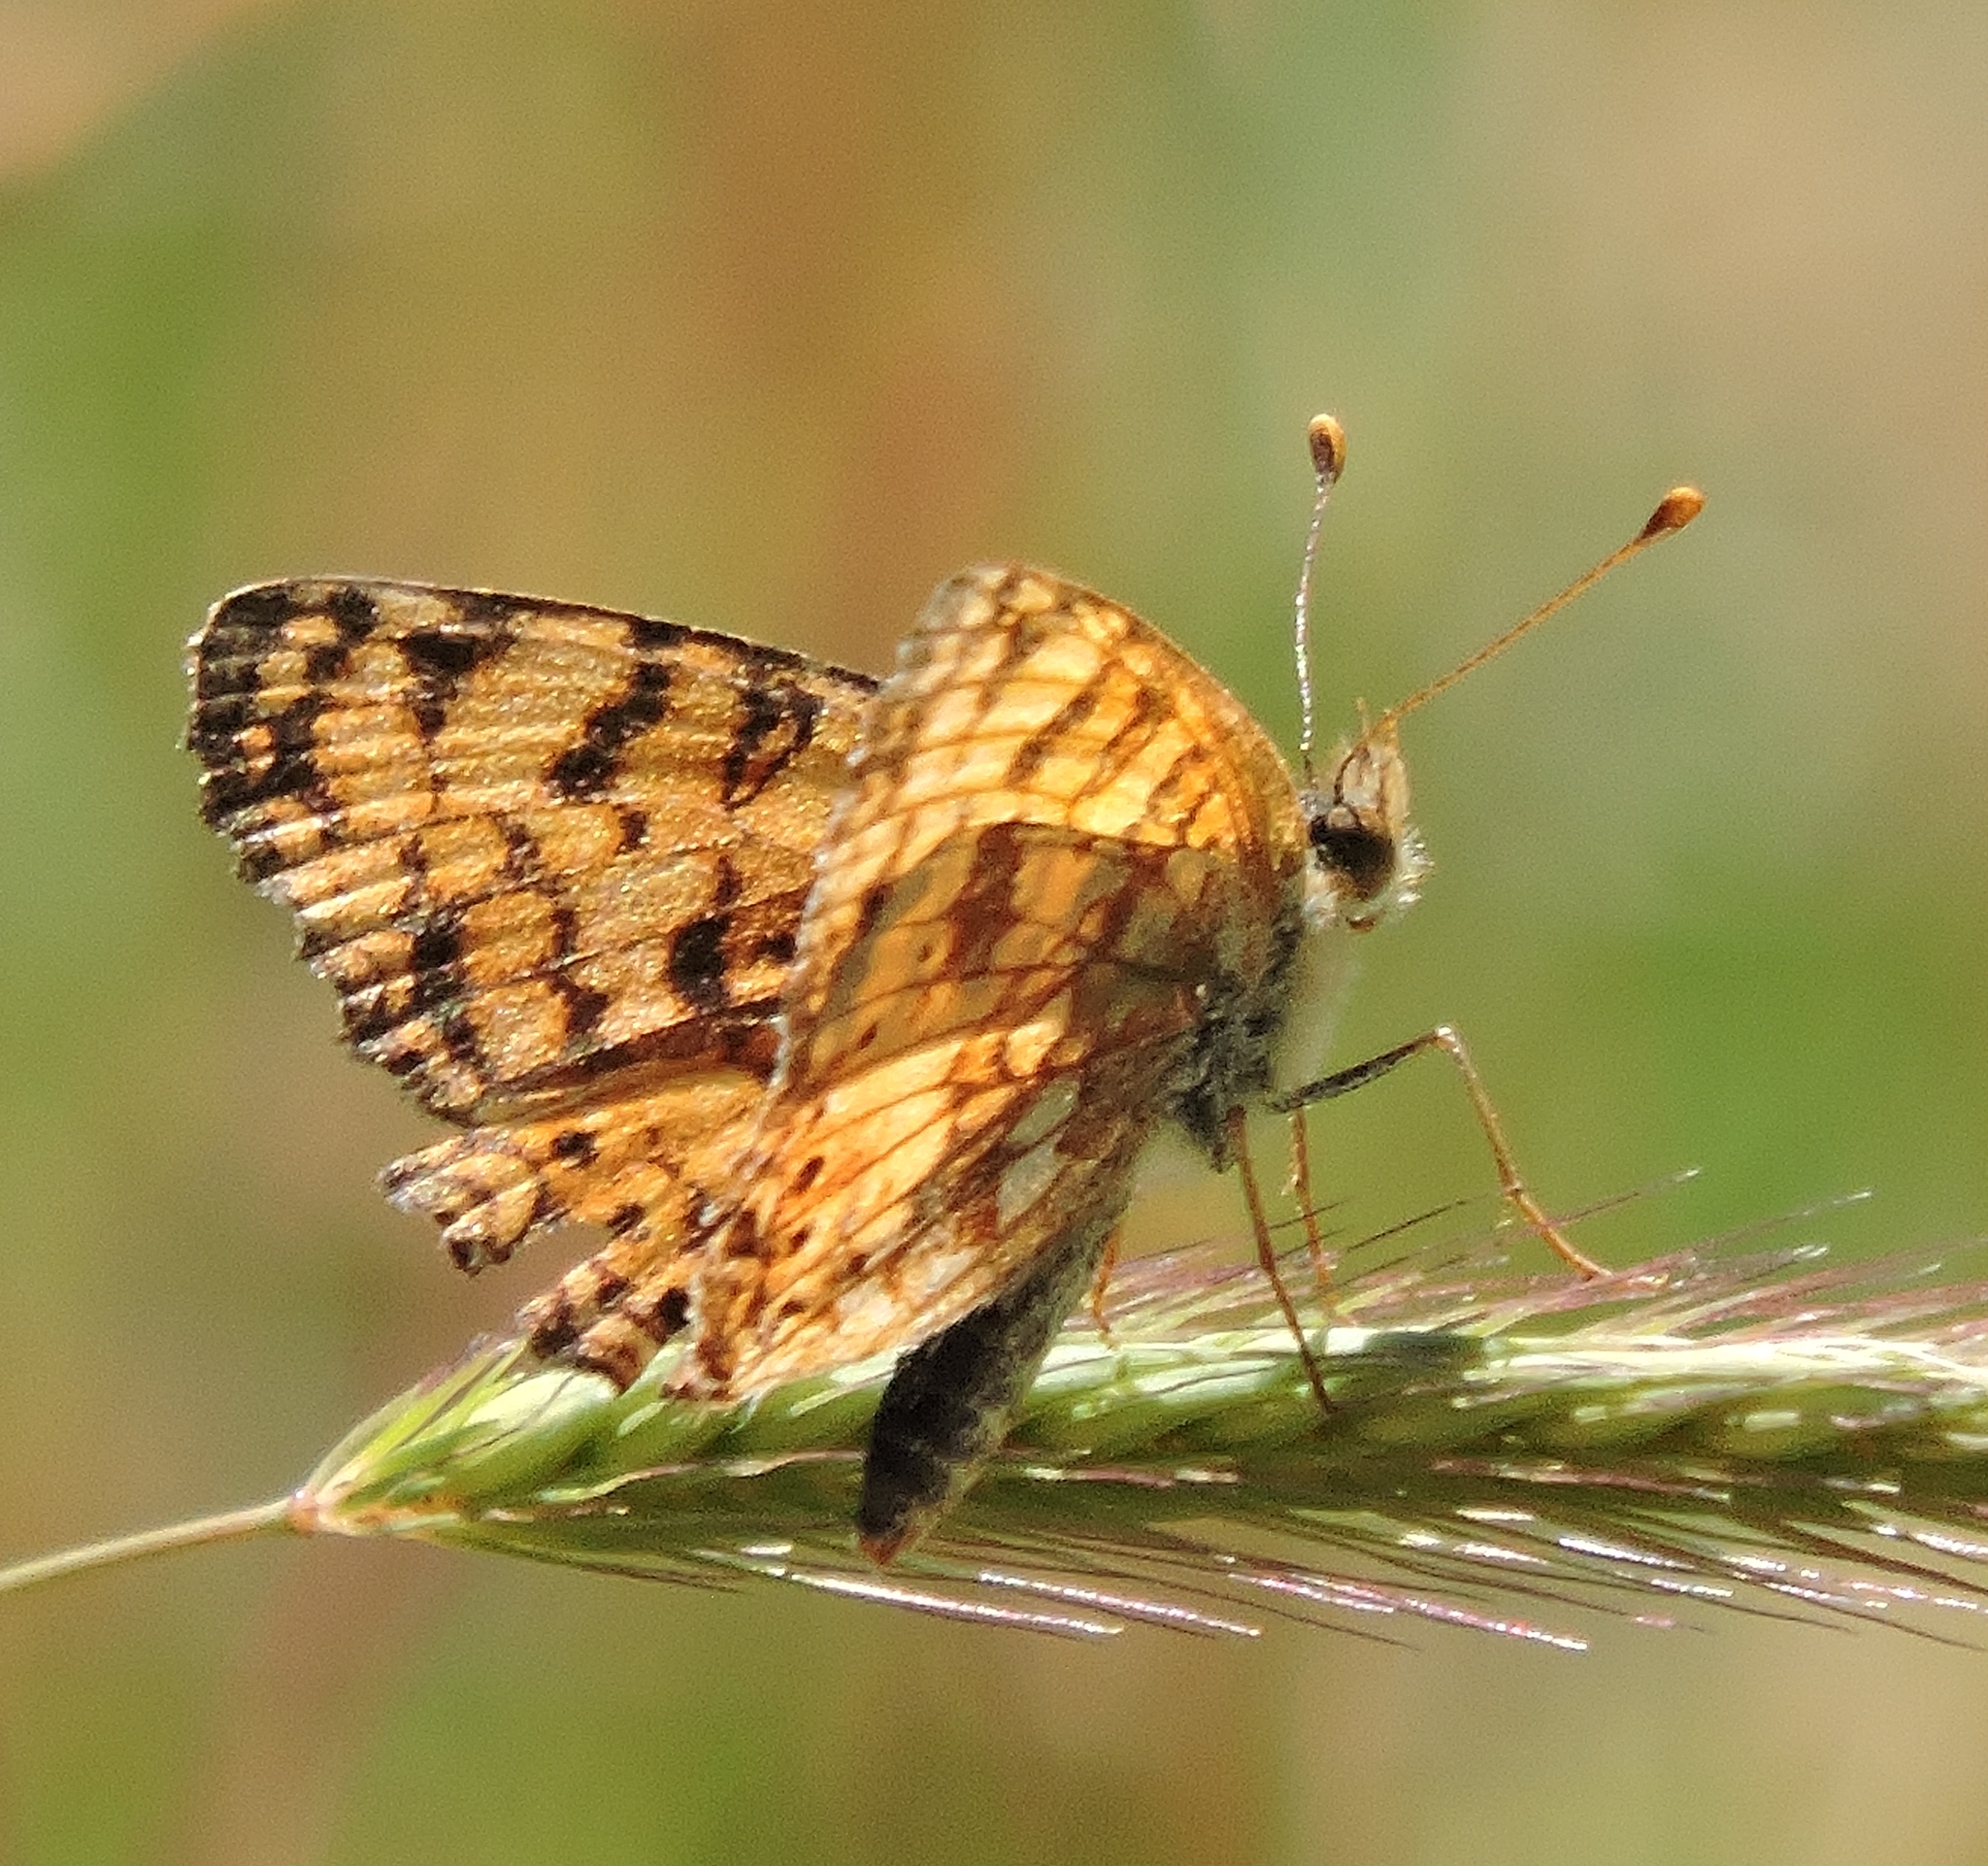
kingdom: Animalia
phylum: Arthropoda
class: Insecta
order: Lepidoptera
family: Nymphalidae
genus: Eresia
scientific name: Eresia aveyrona
